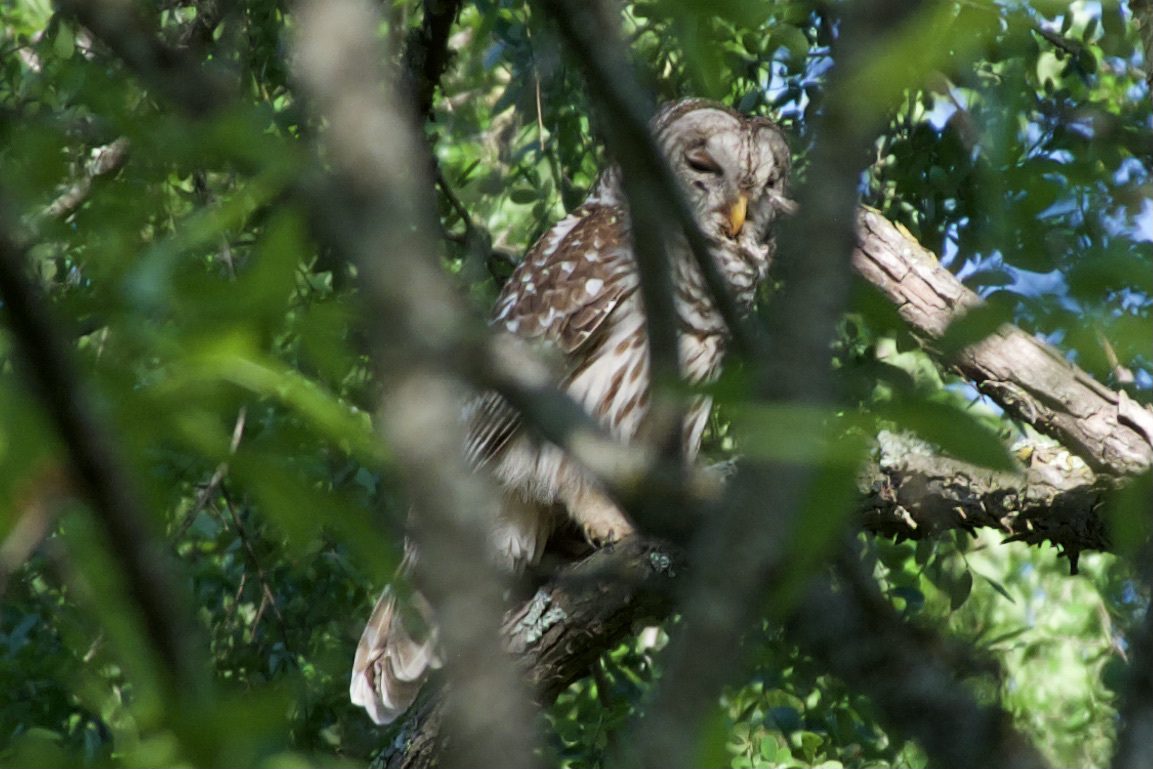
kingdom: Animalia
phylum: Chordata
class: Aves
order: Strigiformes
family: Strigidae
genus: Strix
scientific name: Strix varia
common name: Barred owl
